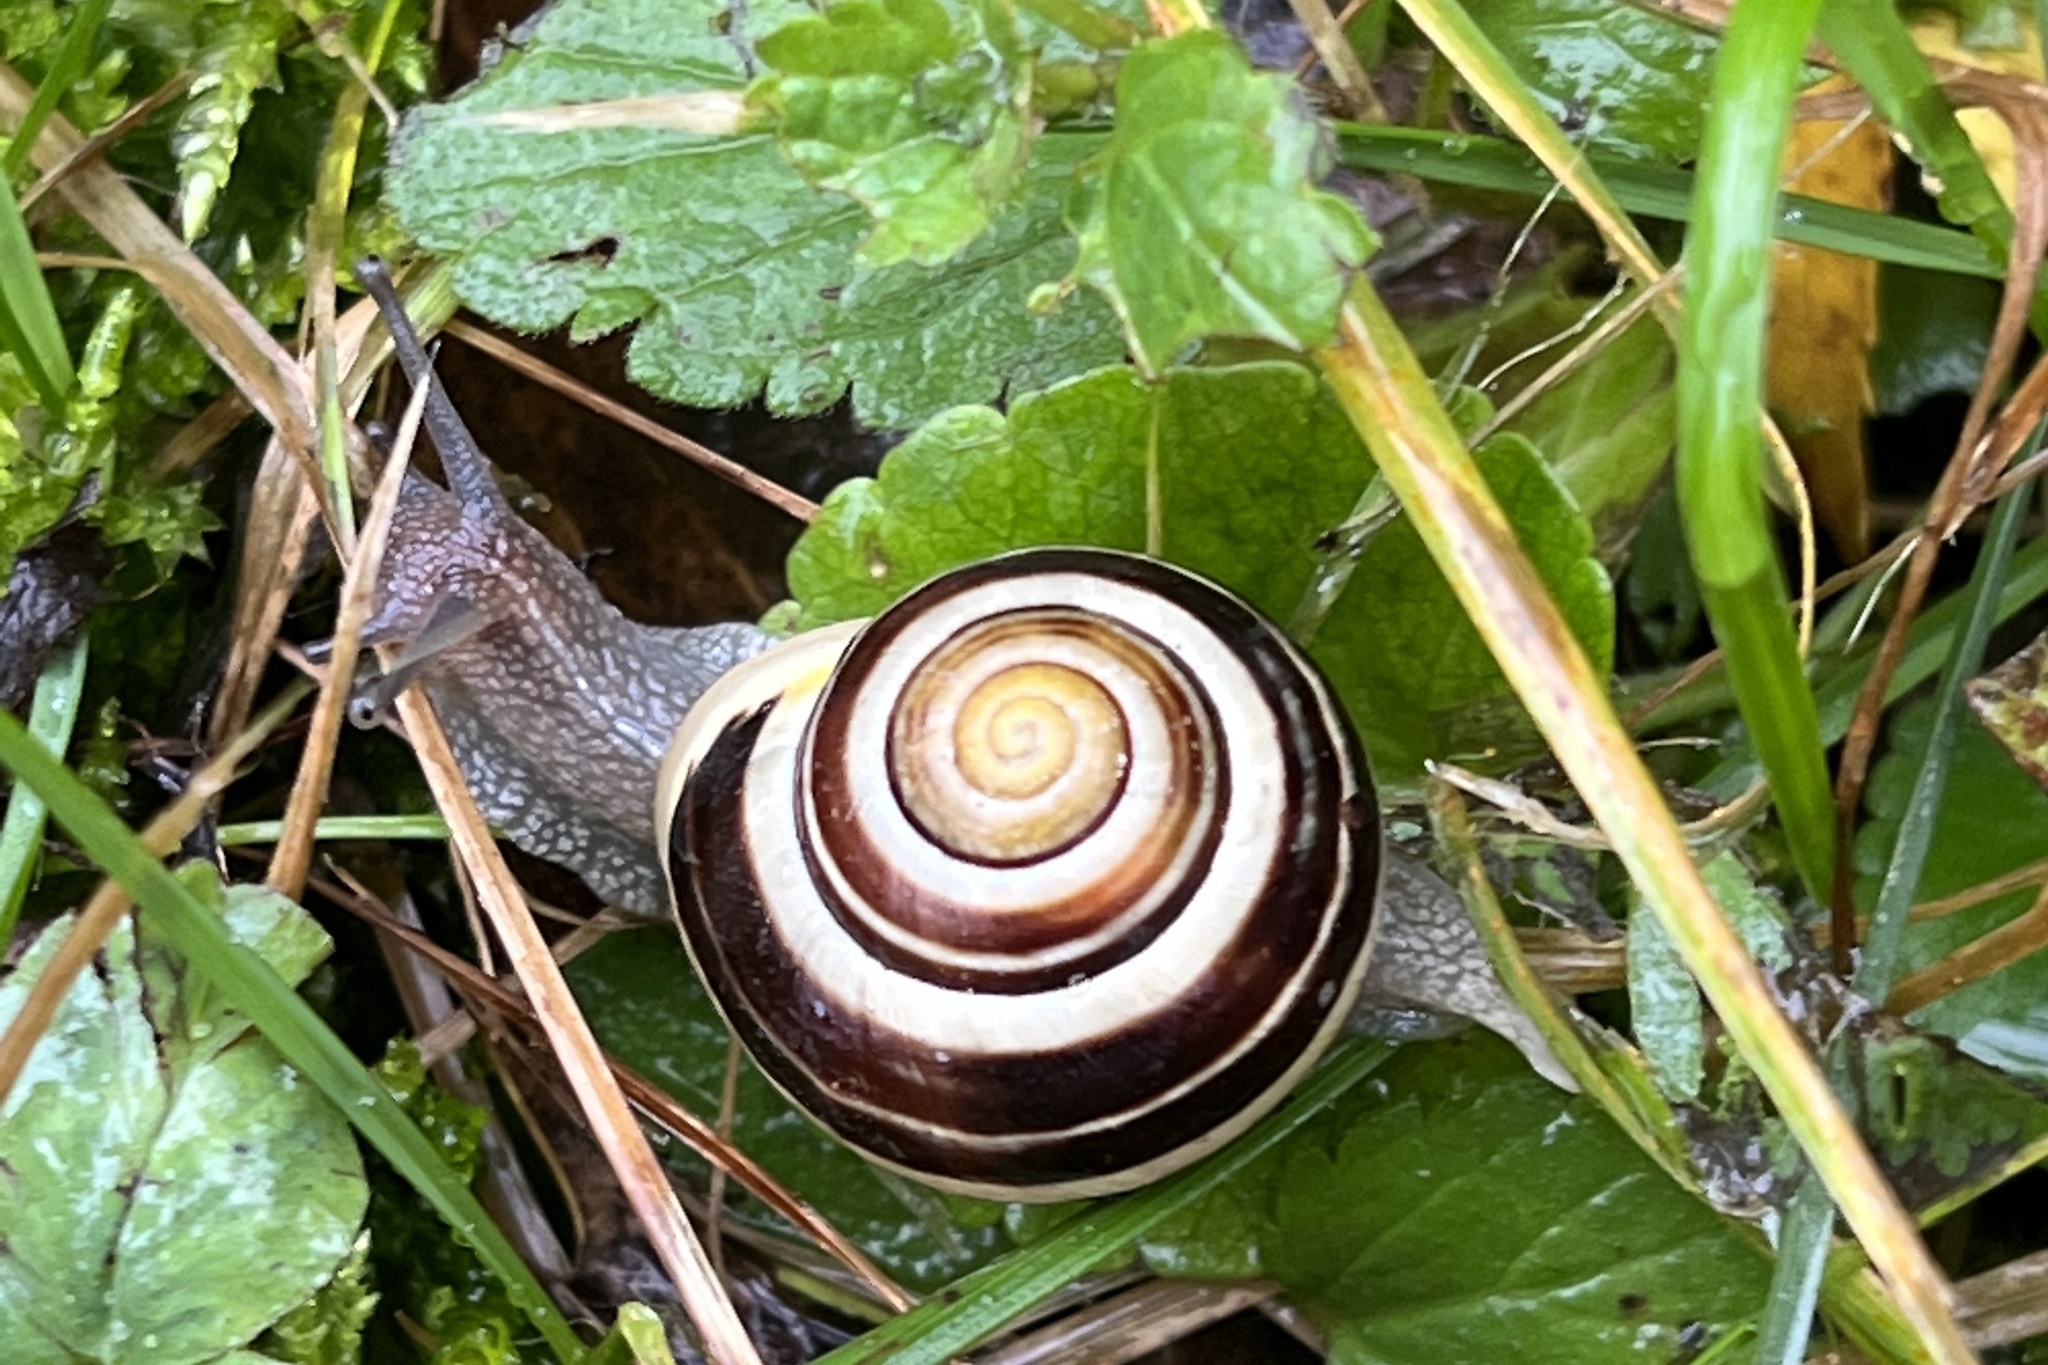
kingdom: Animalia
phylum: Mollusca
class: Gastropoda
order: Stylommatophora
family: Helicidae
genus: Cepaea
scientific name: Cepaea hortensis
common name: White-lip gardensnail
